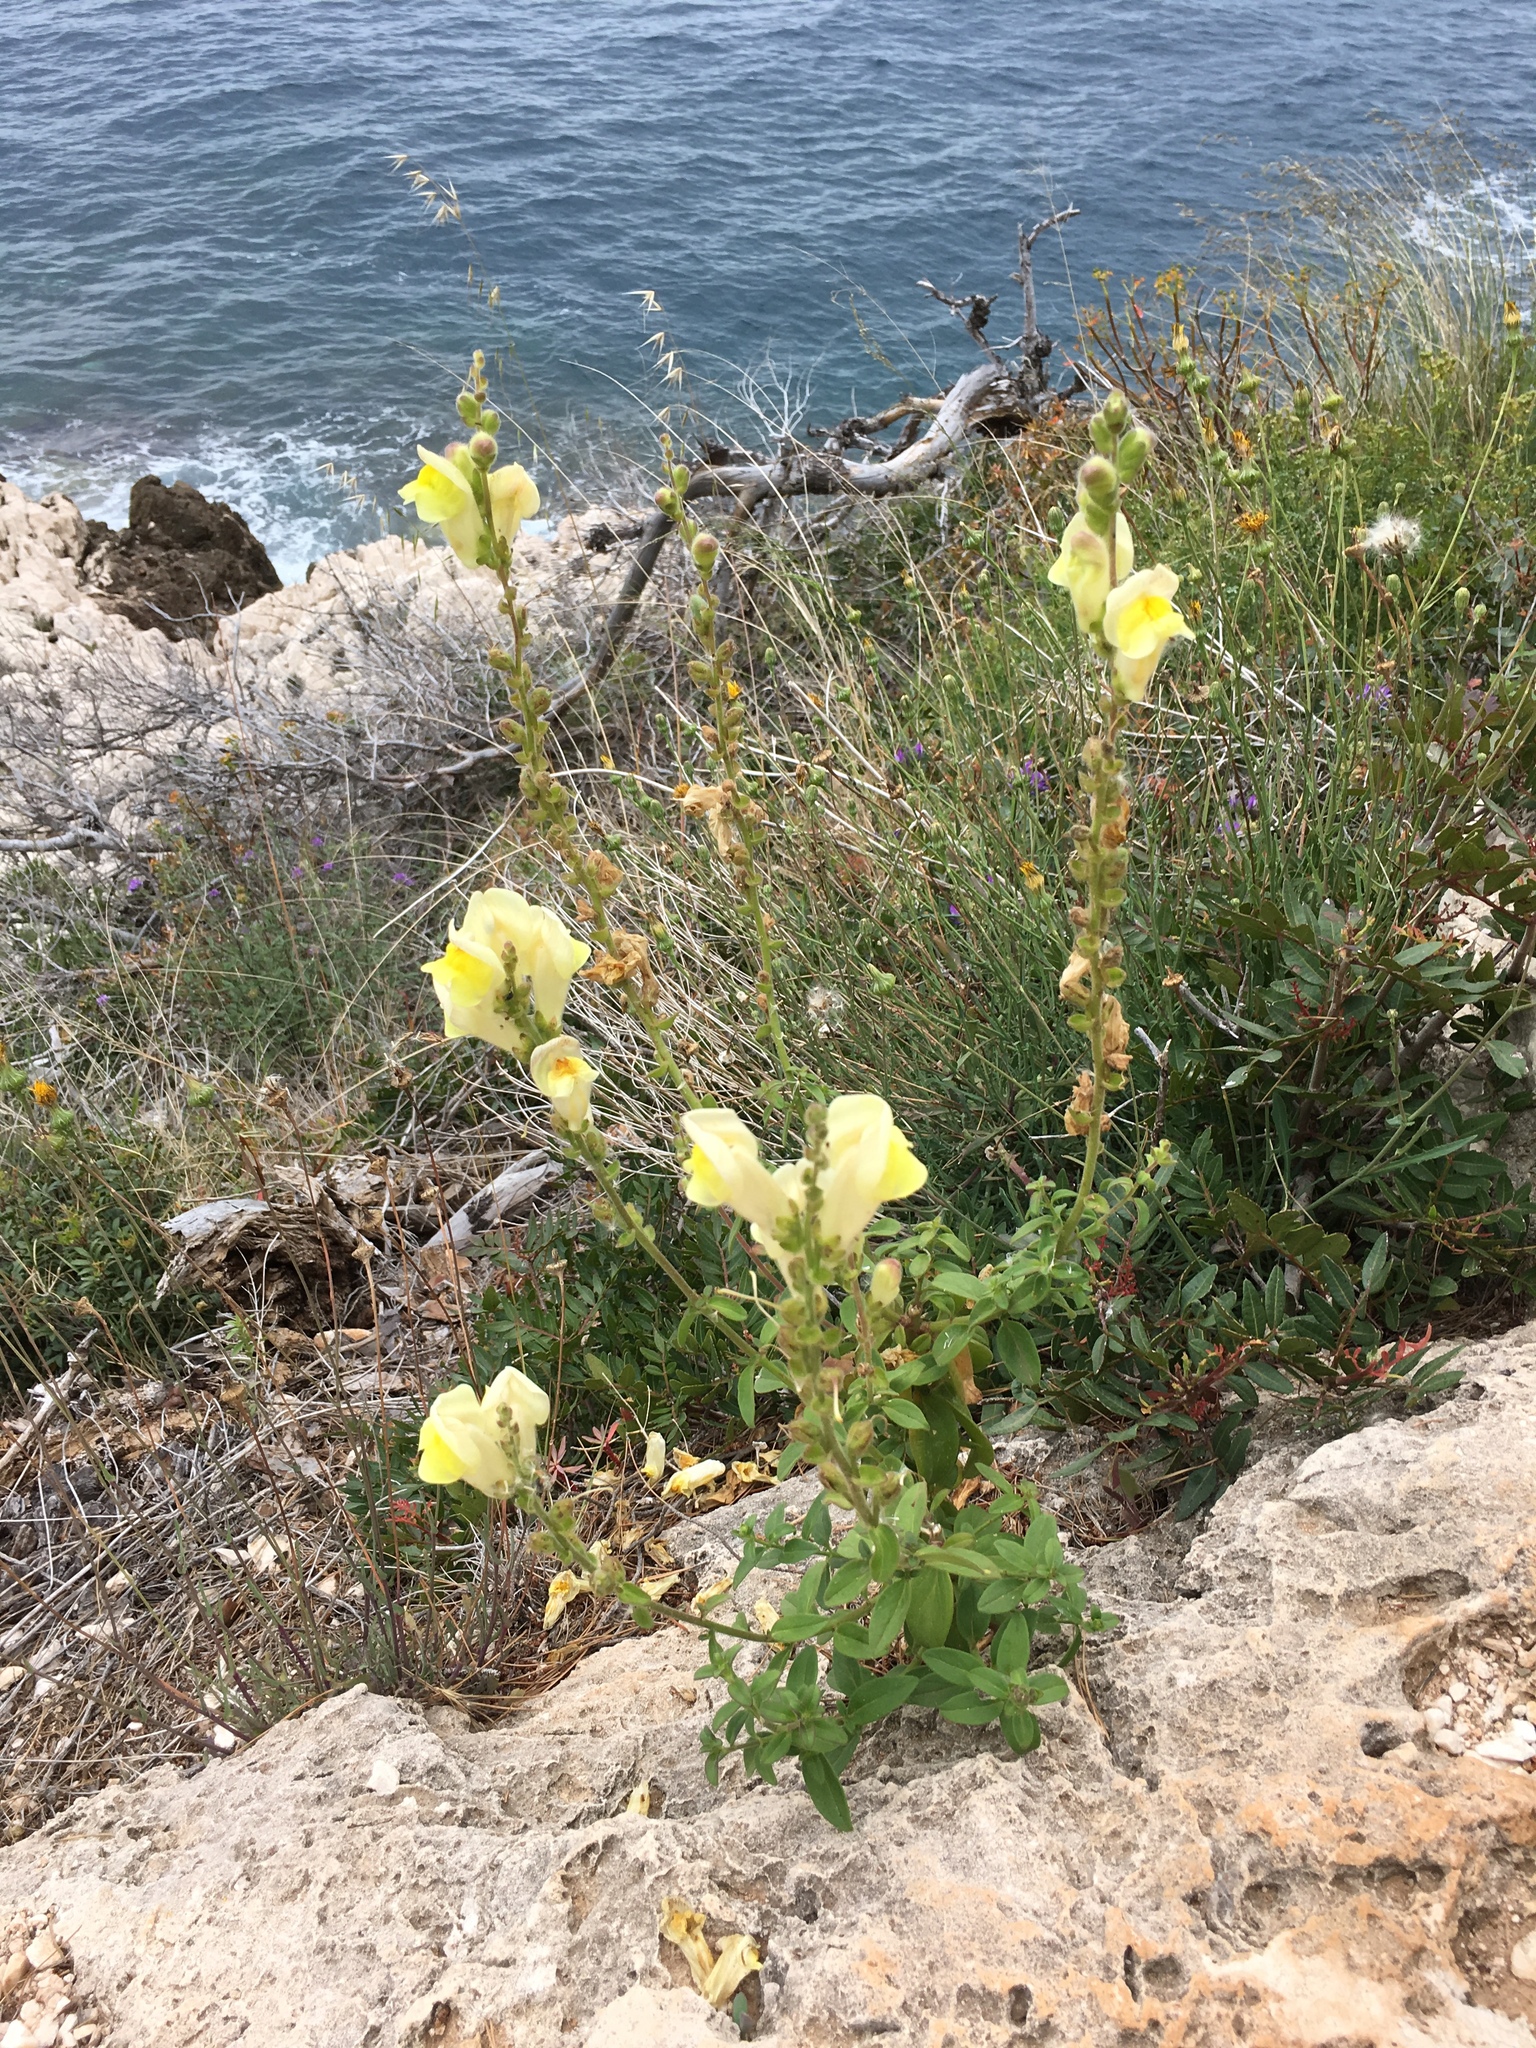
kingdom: Plantae
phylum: Tracheophyta
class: Magnoliopsida
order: Lamiales
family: Plantaginaceae
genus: Antirrhinum
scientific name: Antirrhinum latifolium
